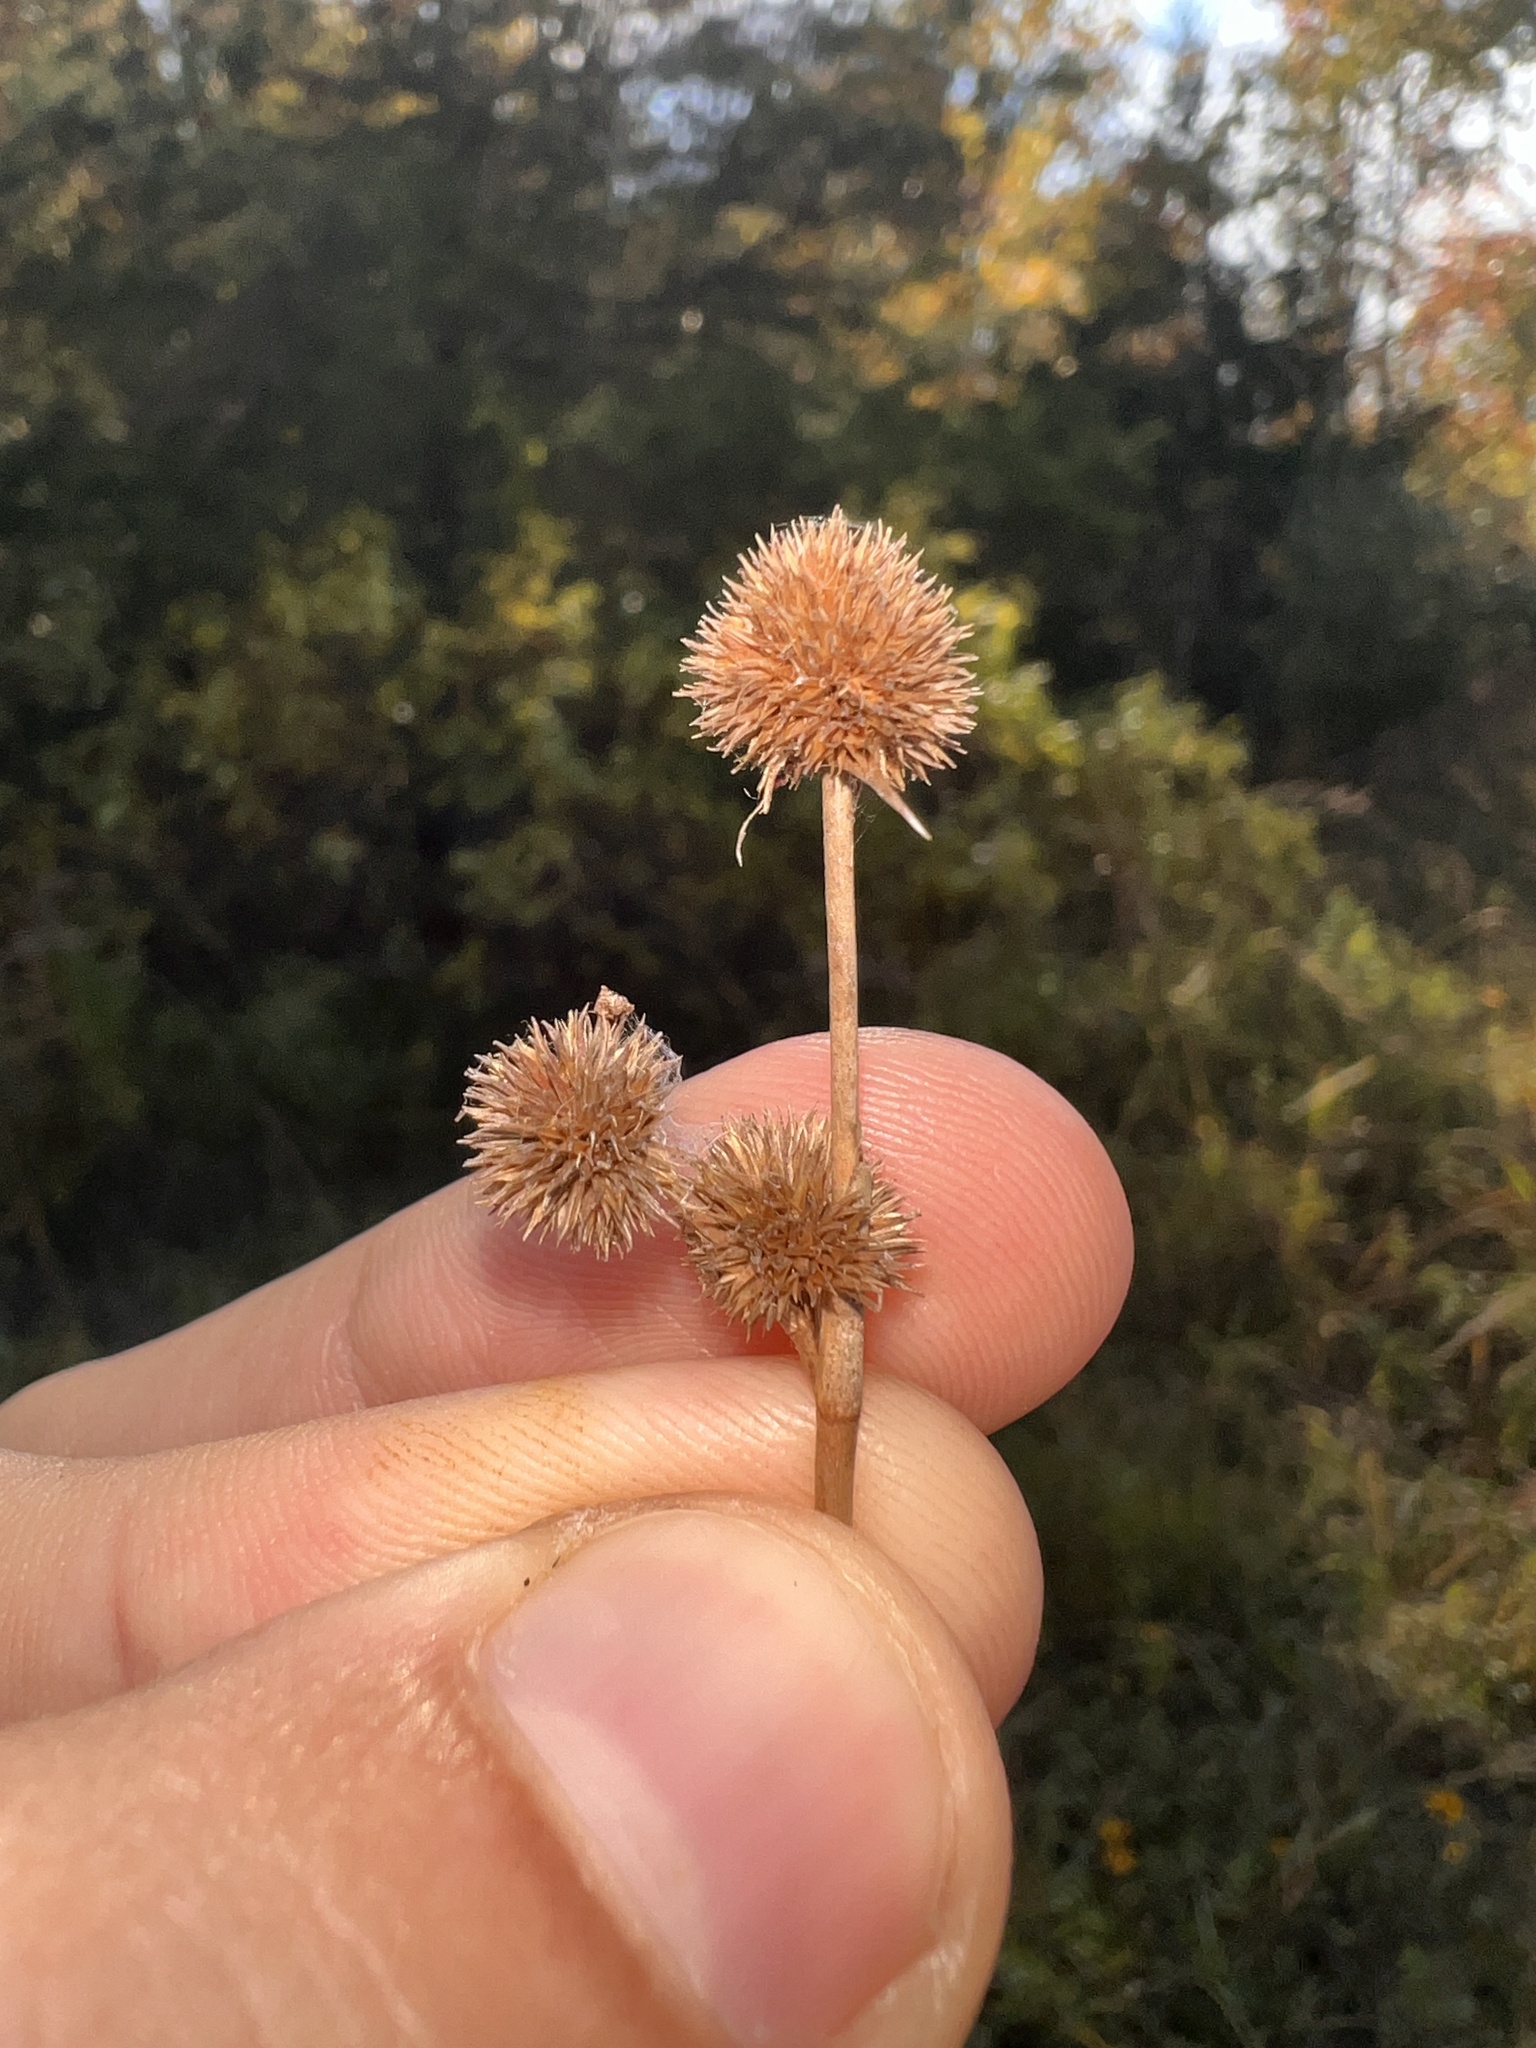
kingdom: Plantae
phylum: Tracheophyta
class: Liliopsida
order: Poales
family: Juncaceae
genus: Juncus
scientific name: Juncus scirpoides
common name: Needlepod rush
